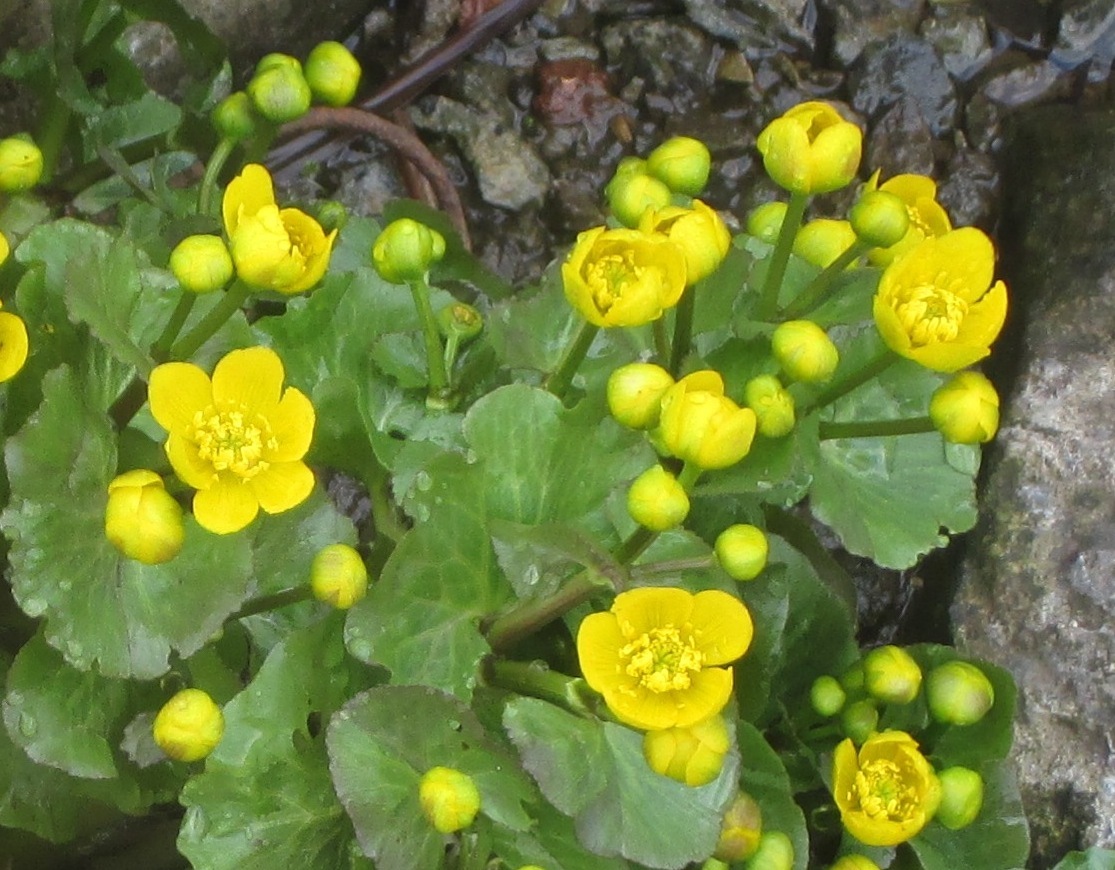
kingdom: Plantae
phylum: Tracheophyta
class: Magnoliopsida
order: Ranunculales
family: Ranunculaceae
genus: Caltha
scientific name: Caltha palustris
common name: Marsh marigold
